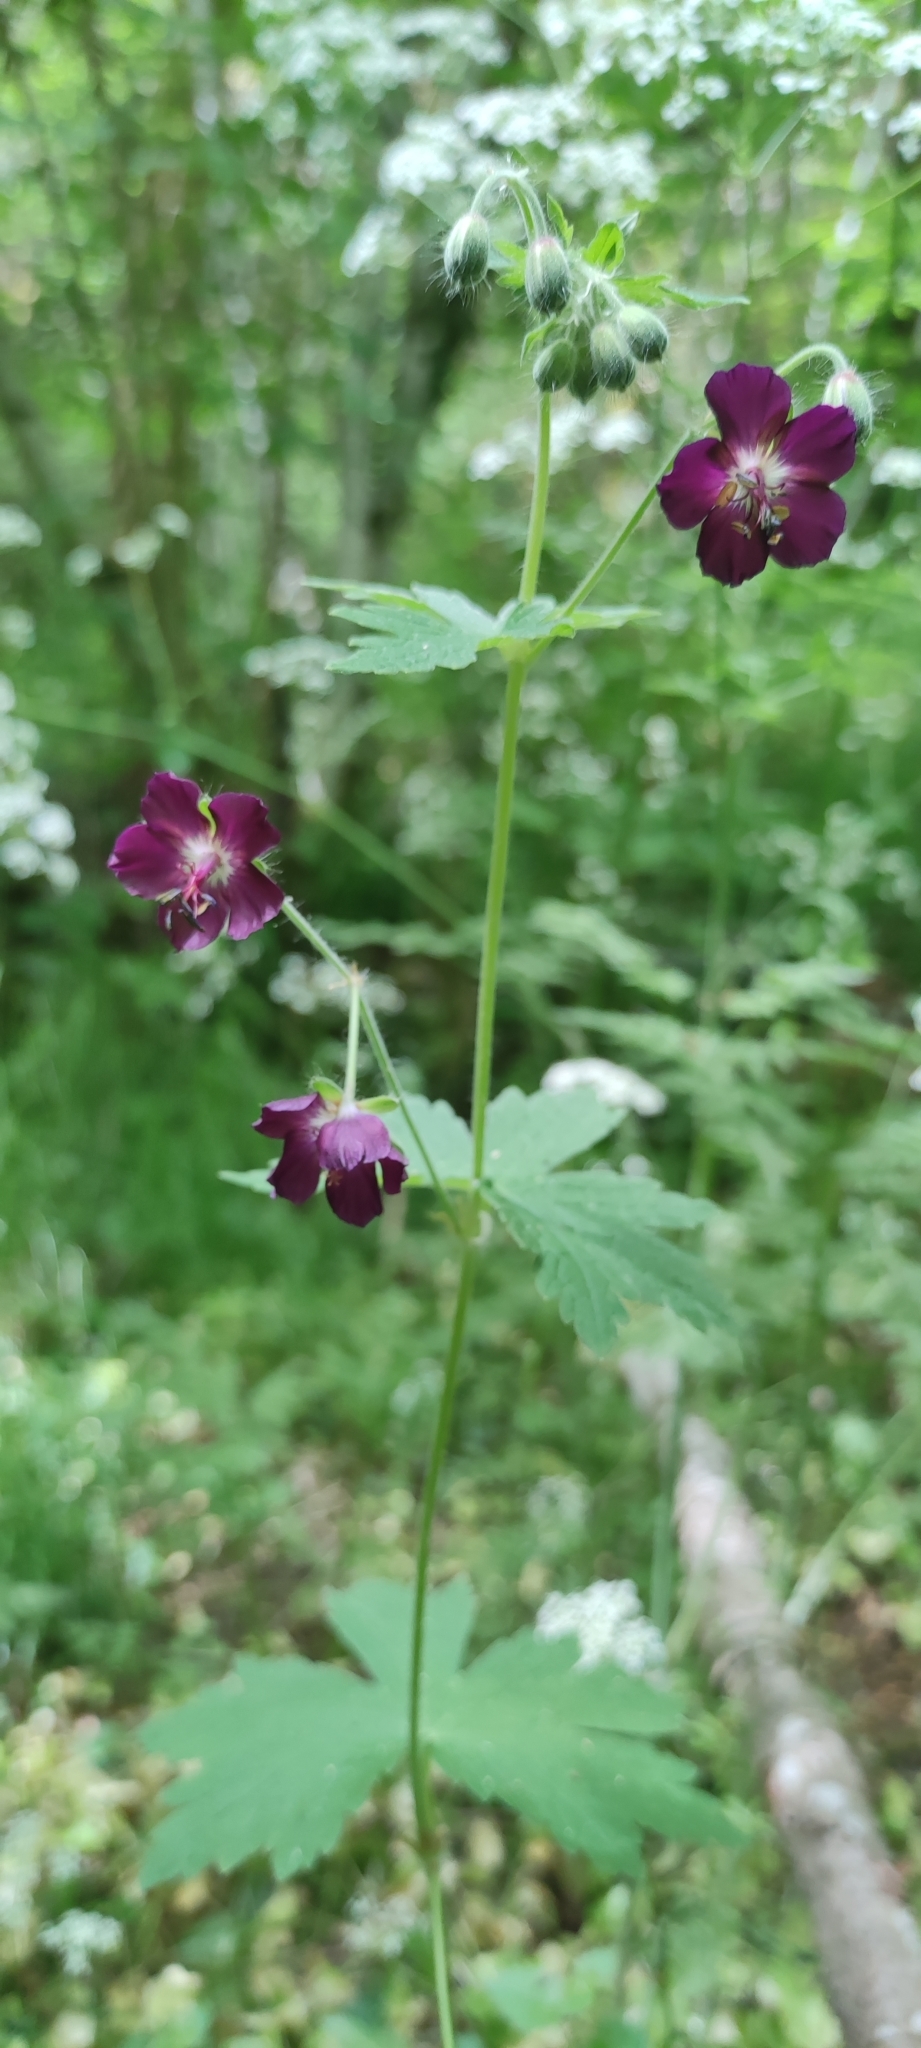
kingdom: Plantae
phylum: Tracheophyta
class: Magnoliopsida
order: Geraniales
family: Geraniaceae
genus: Geranium
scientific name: Geranium phaeum
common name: Dusky crane's-bill
